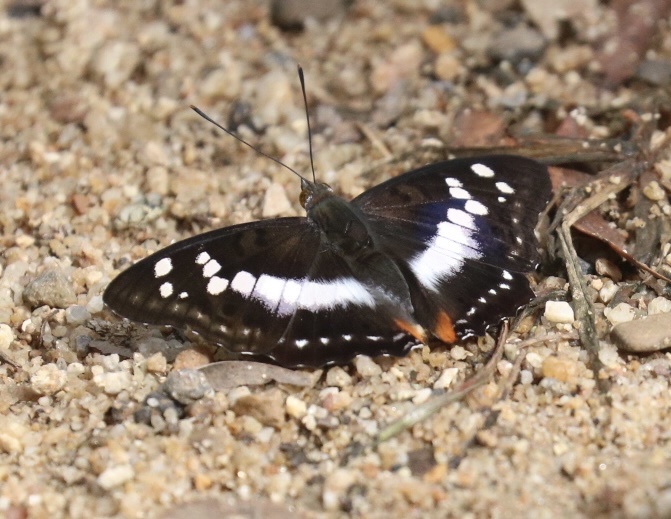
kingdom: Animalia
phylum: Arthropoda
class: Insecta
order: Lepidoptera
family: Nymphalidae
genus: Apatura
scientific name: Apatura Mimathyma ambica
